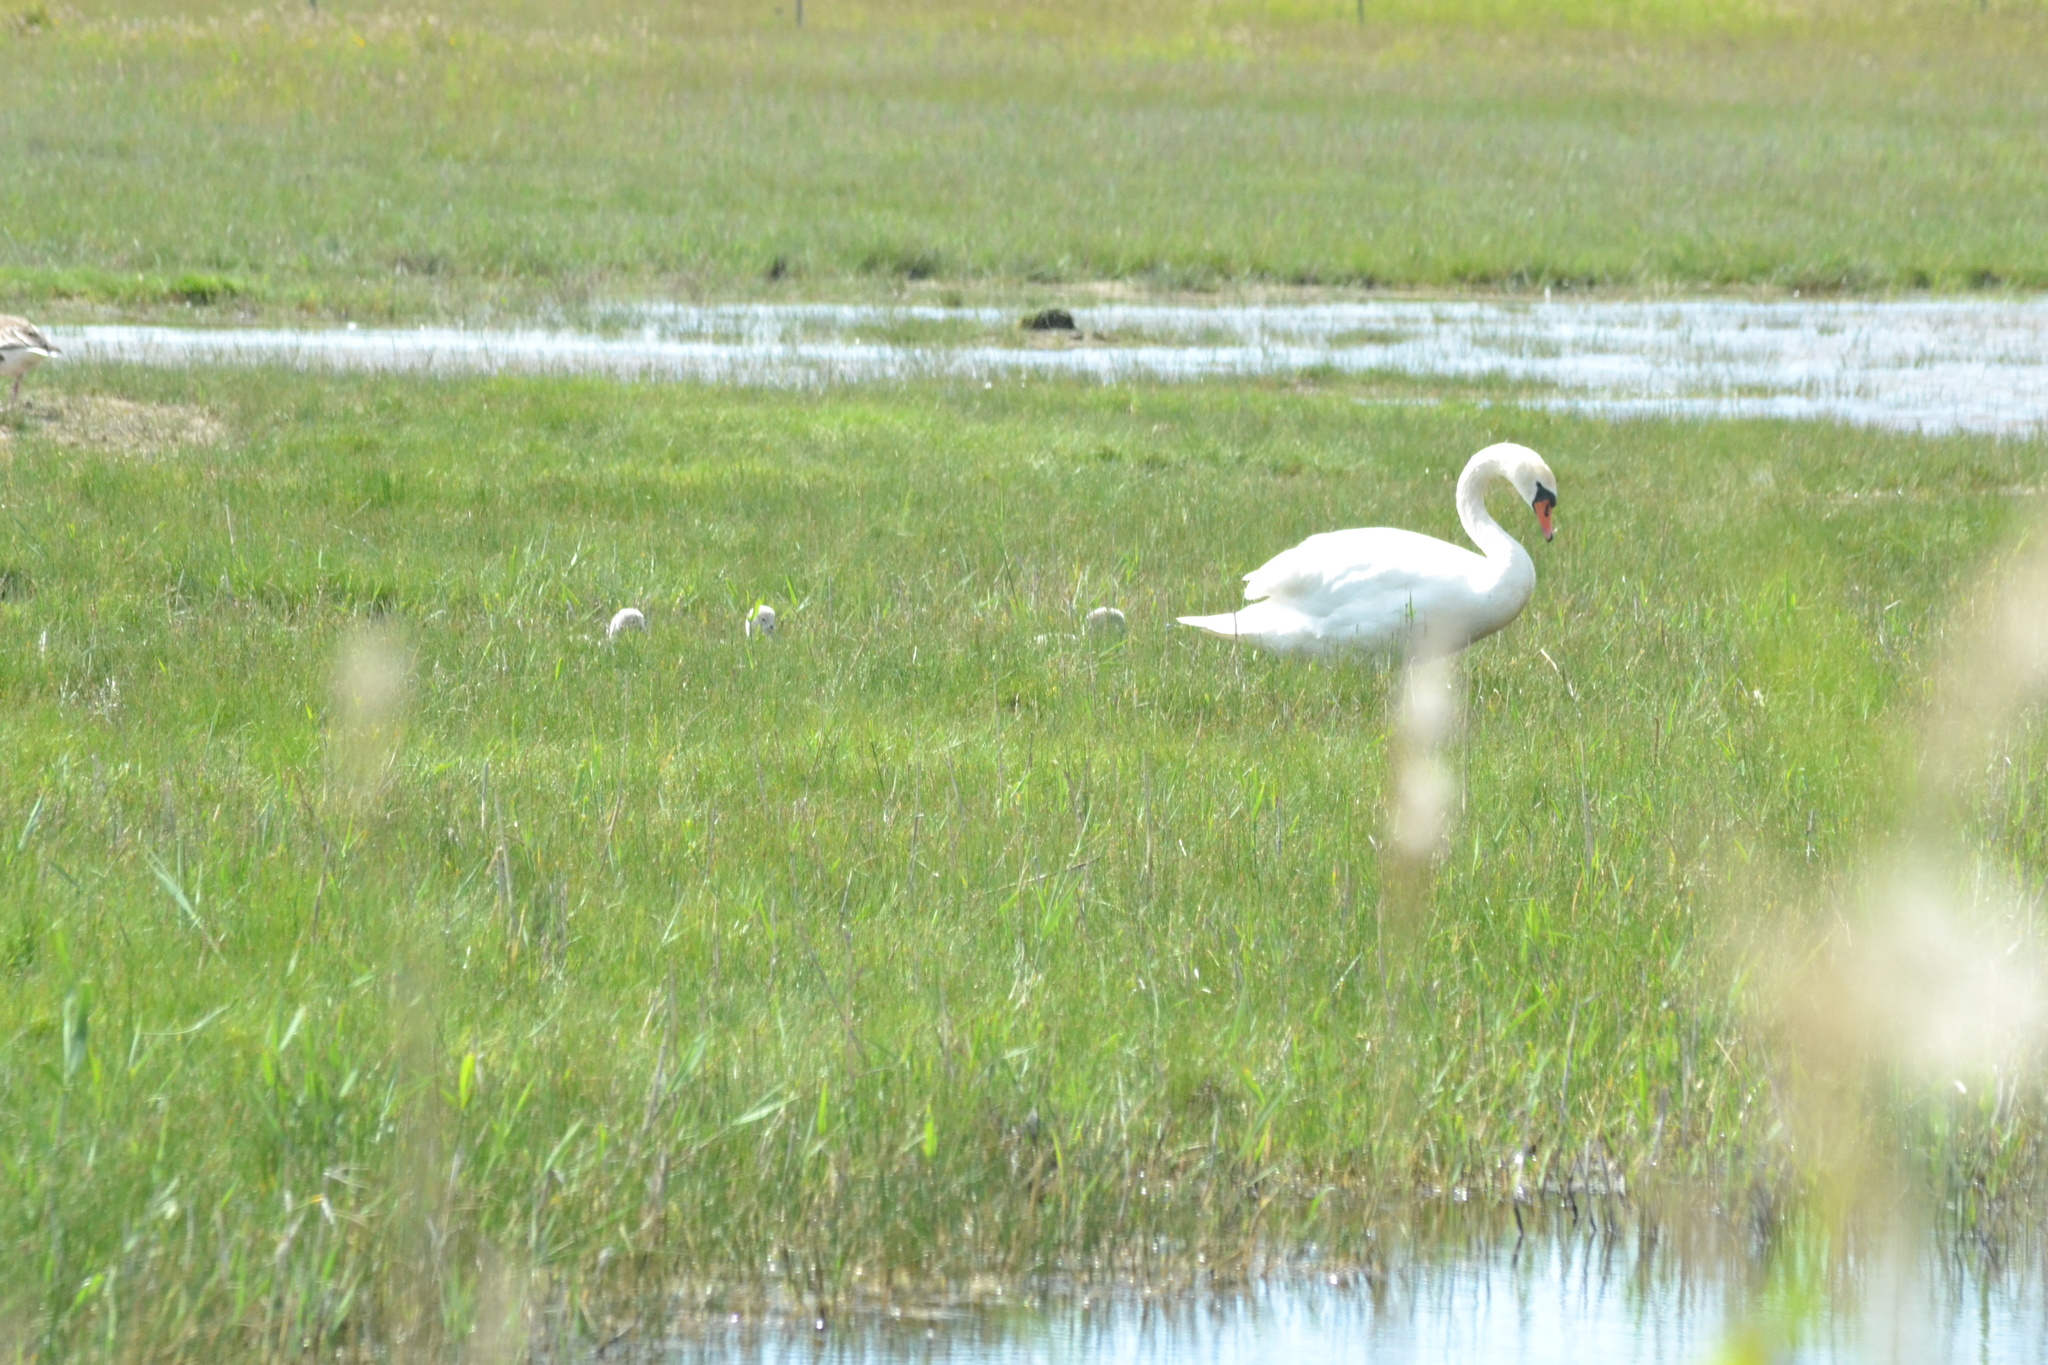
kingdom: Animalia
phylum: Chordata
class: Aves
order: Anseriformes
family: Anatidae
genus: Cygnus
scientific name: Cygnus olor
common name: Mute swan
